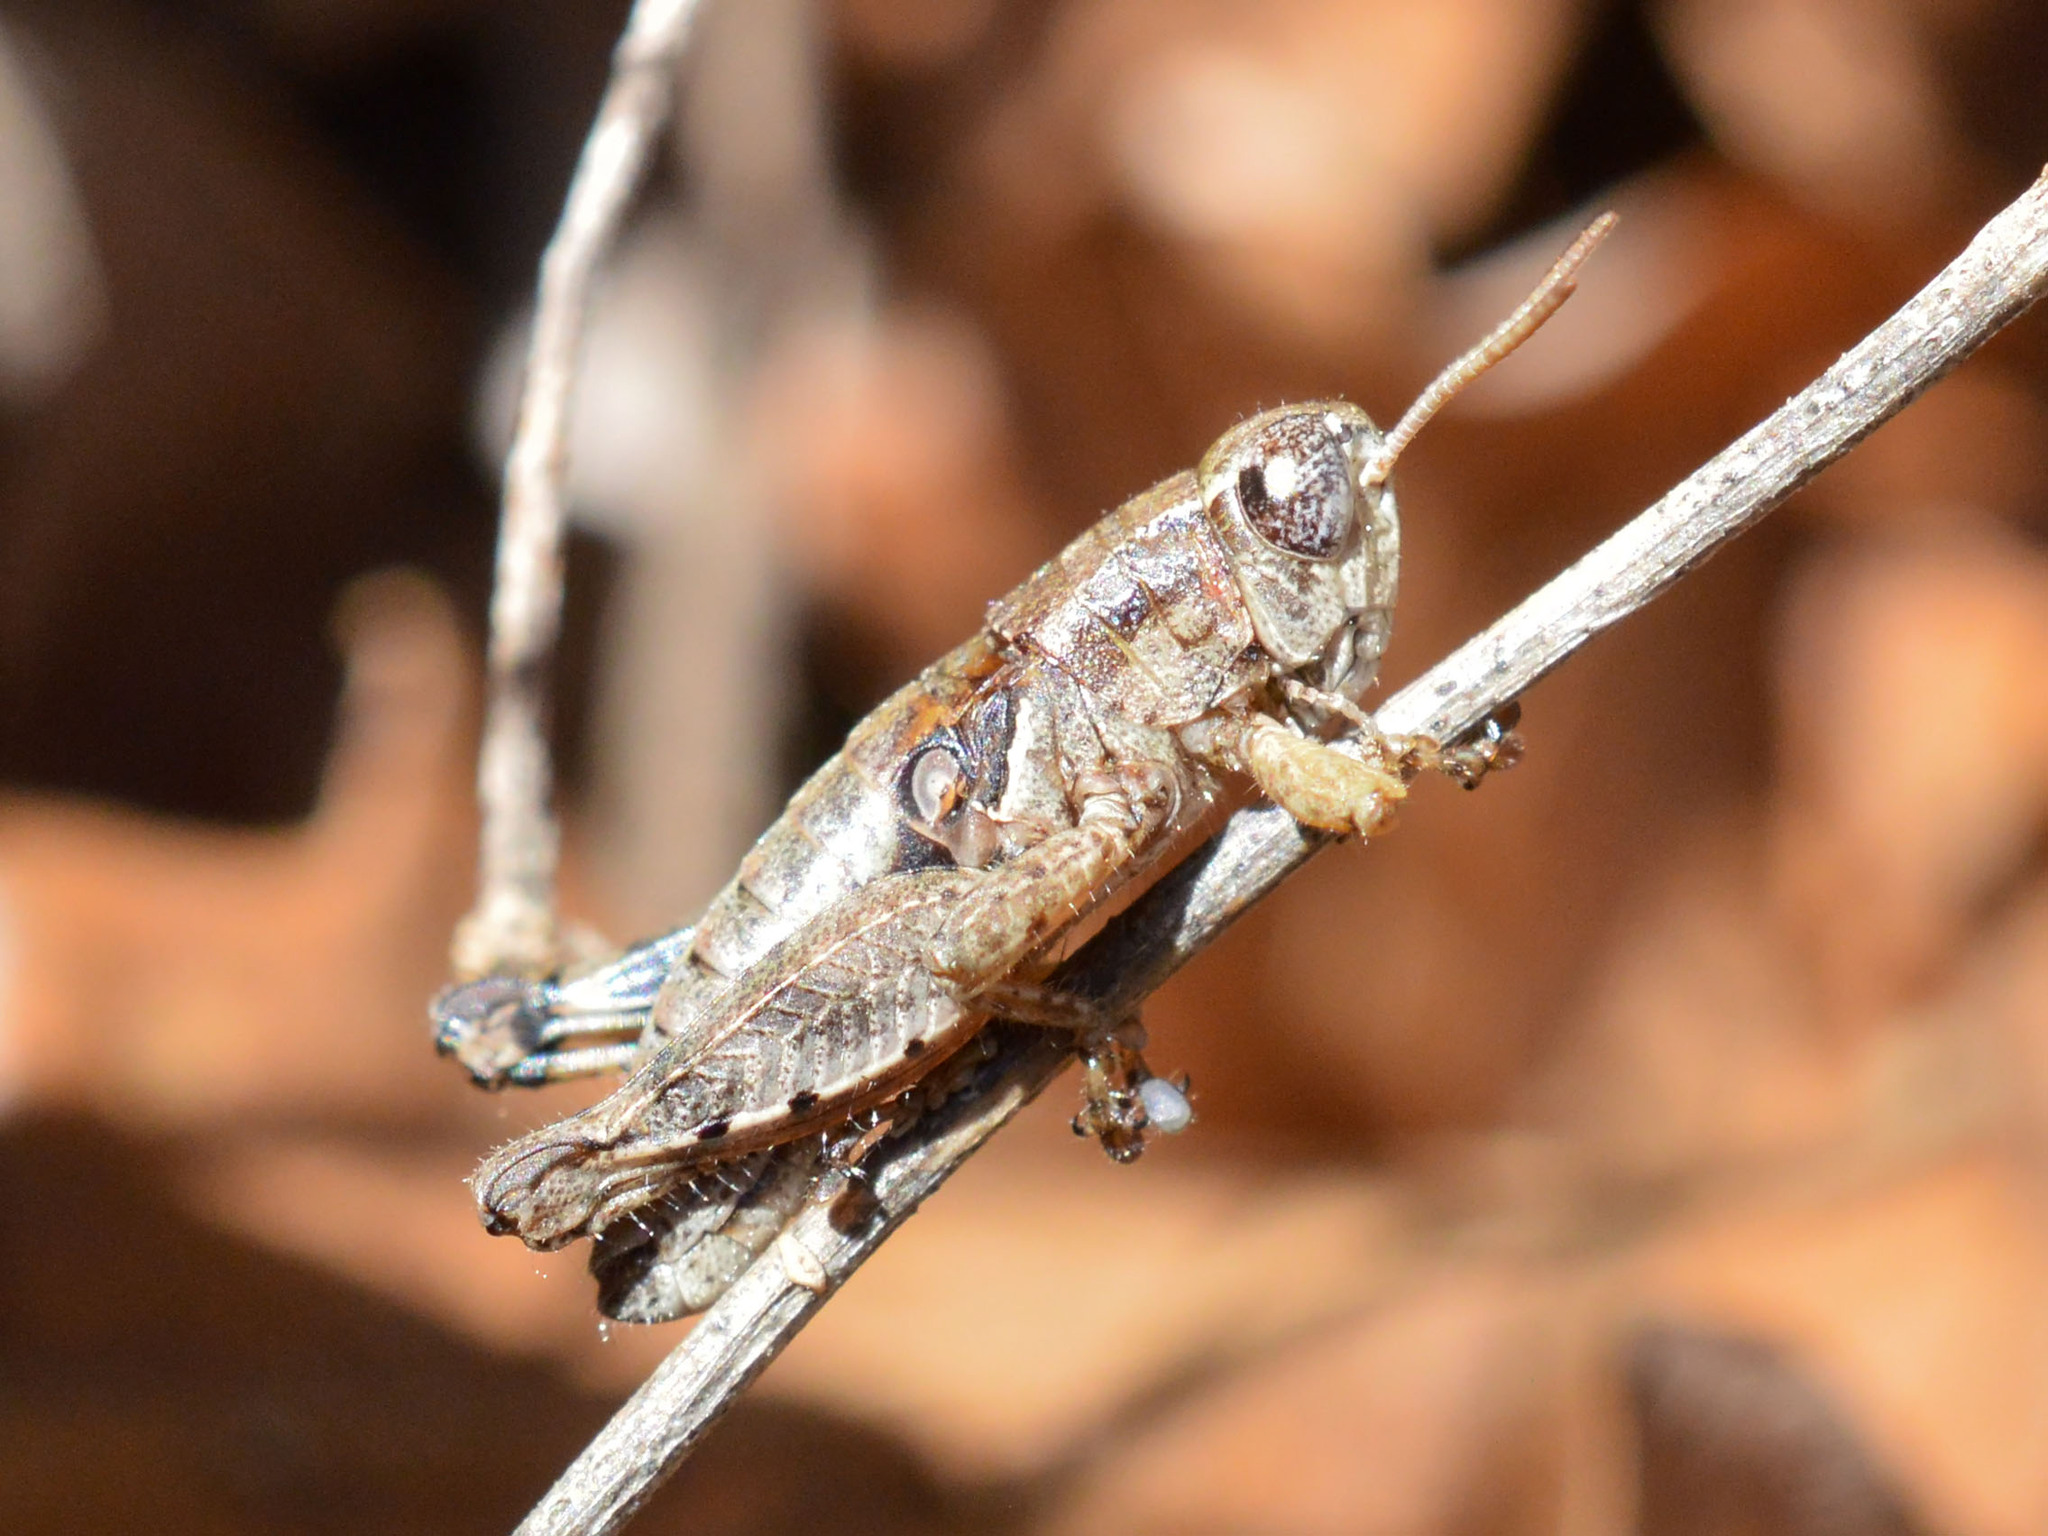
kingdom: Animalia
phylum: Arthropoda
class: Insecta
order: Orthoptera
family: Acrididae
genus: Pezotettix
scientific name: Pezotettix giornae
